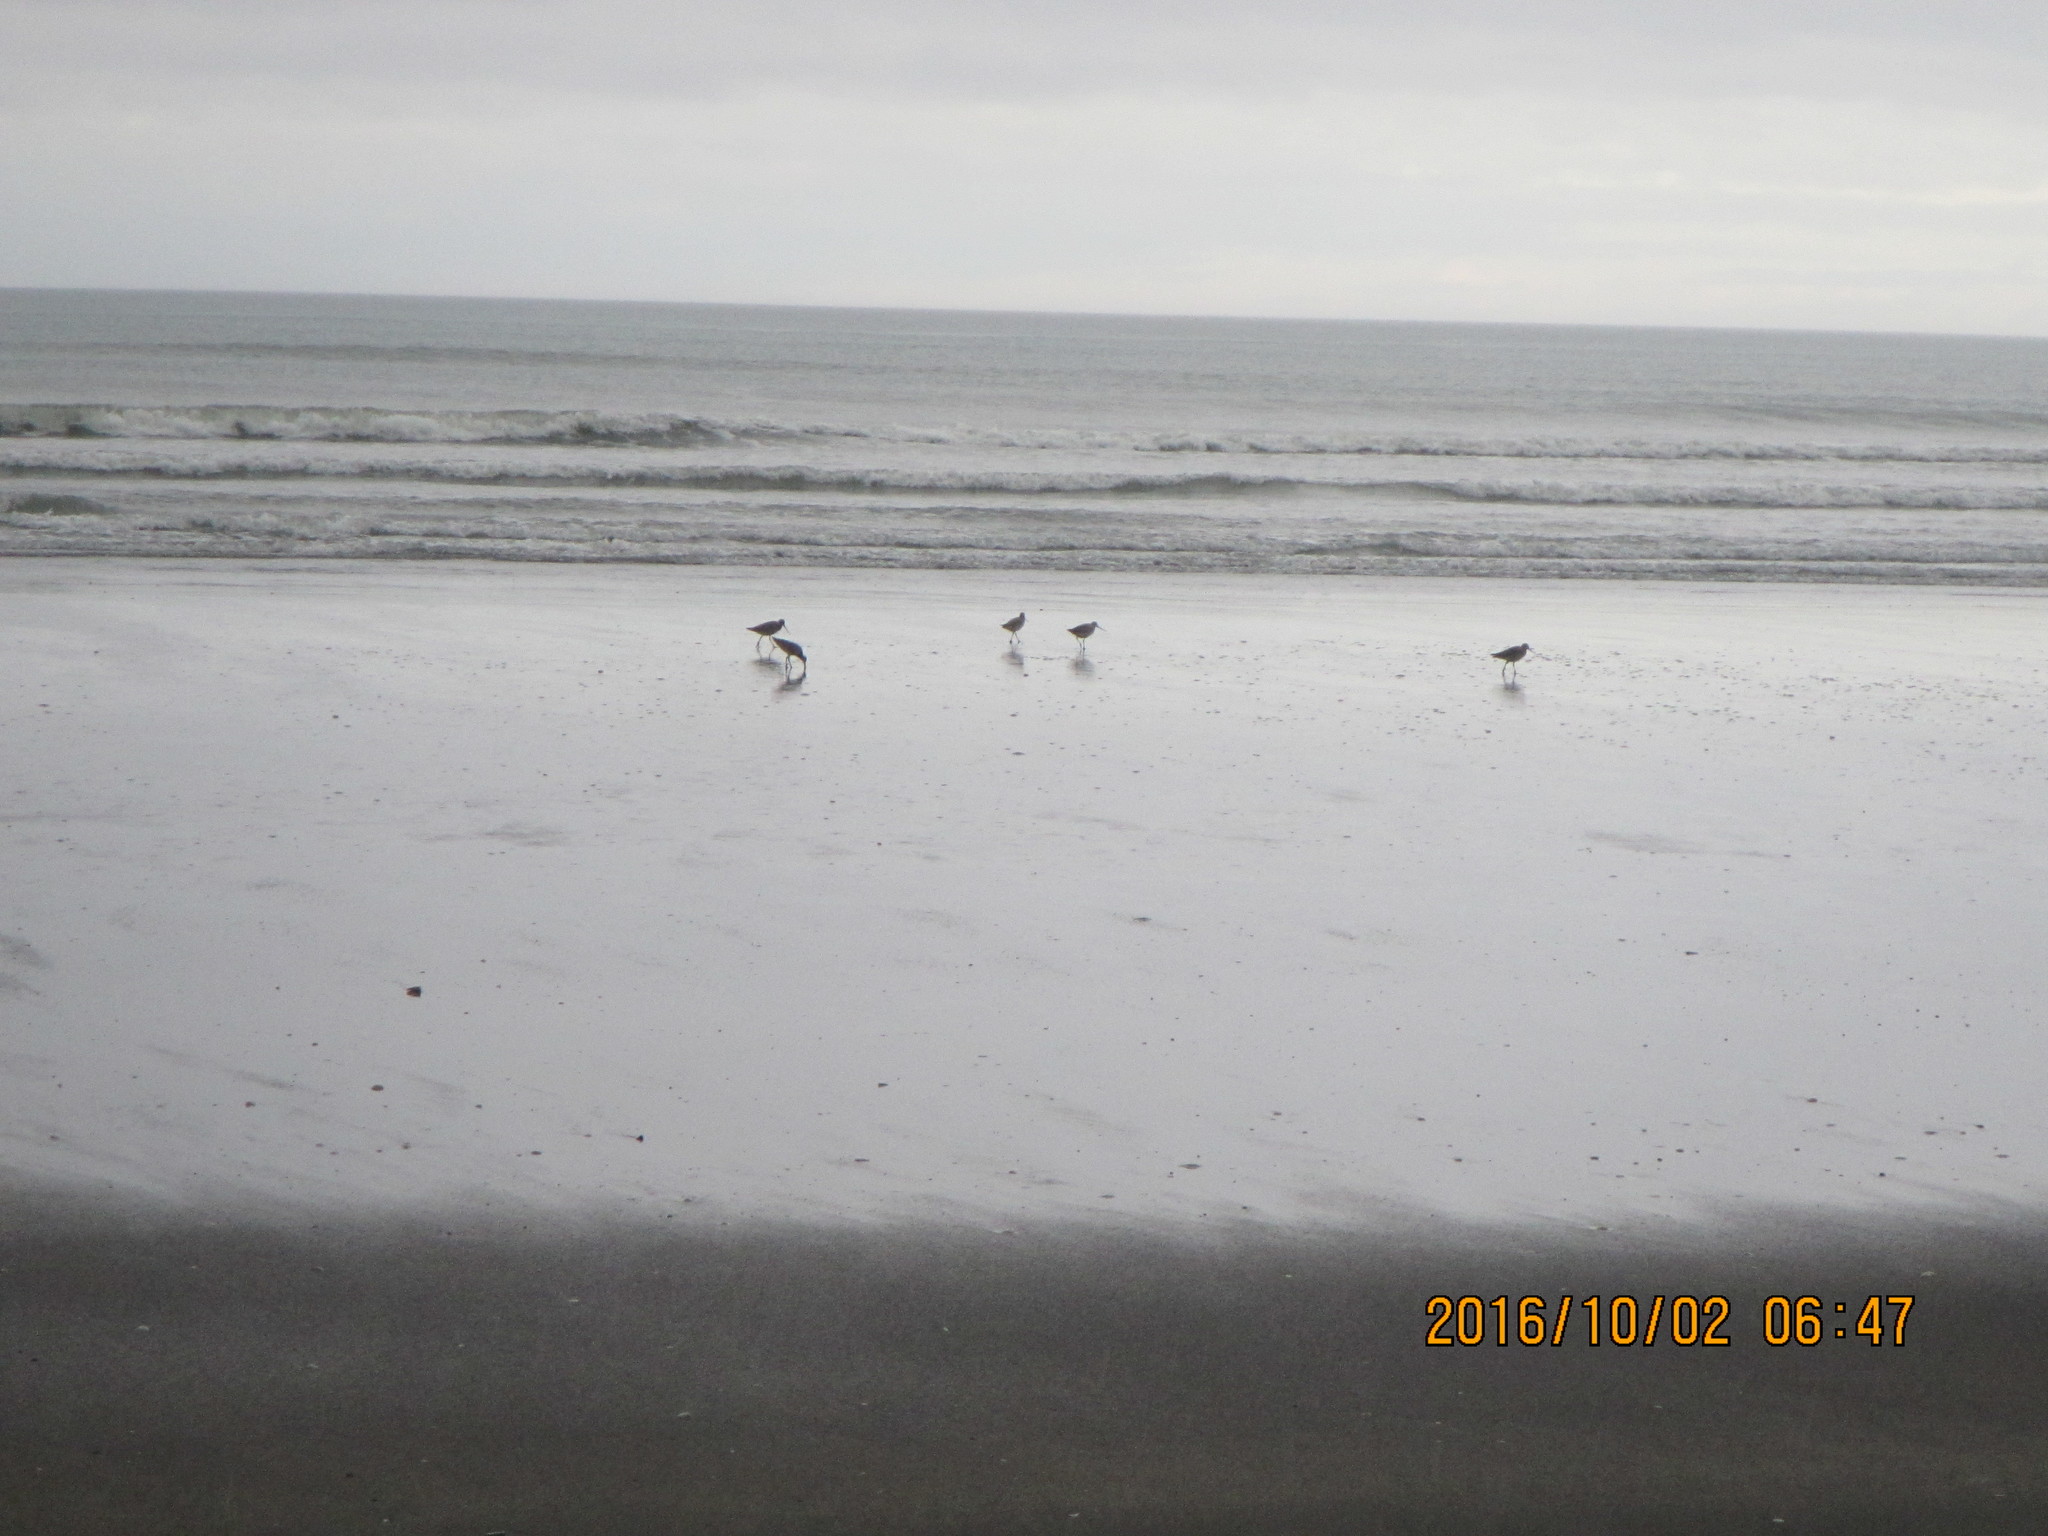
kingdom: Animalia
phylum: Chordata
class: Aves
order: Charadriiformes
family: Scolopacidae
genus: Limosa
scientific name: Limosa lapponica
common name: Bar-tailed godwit
